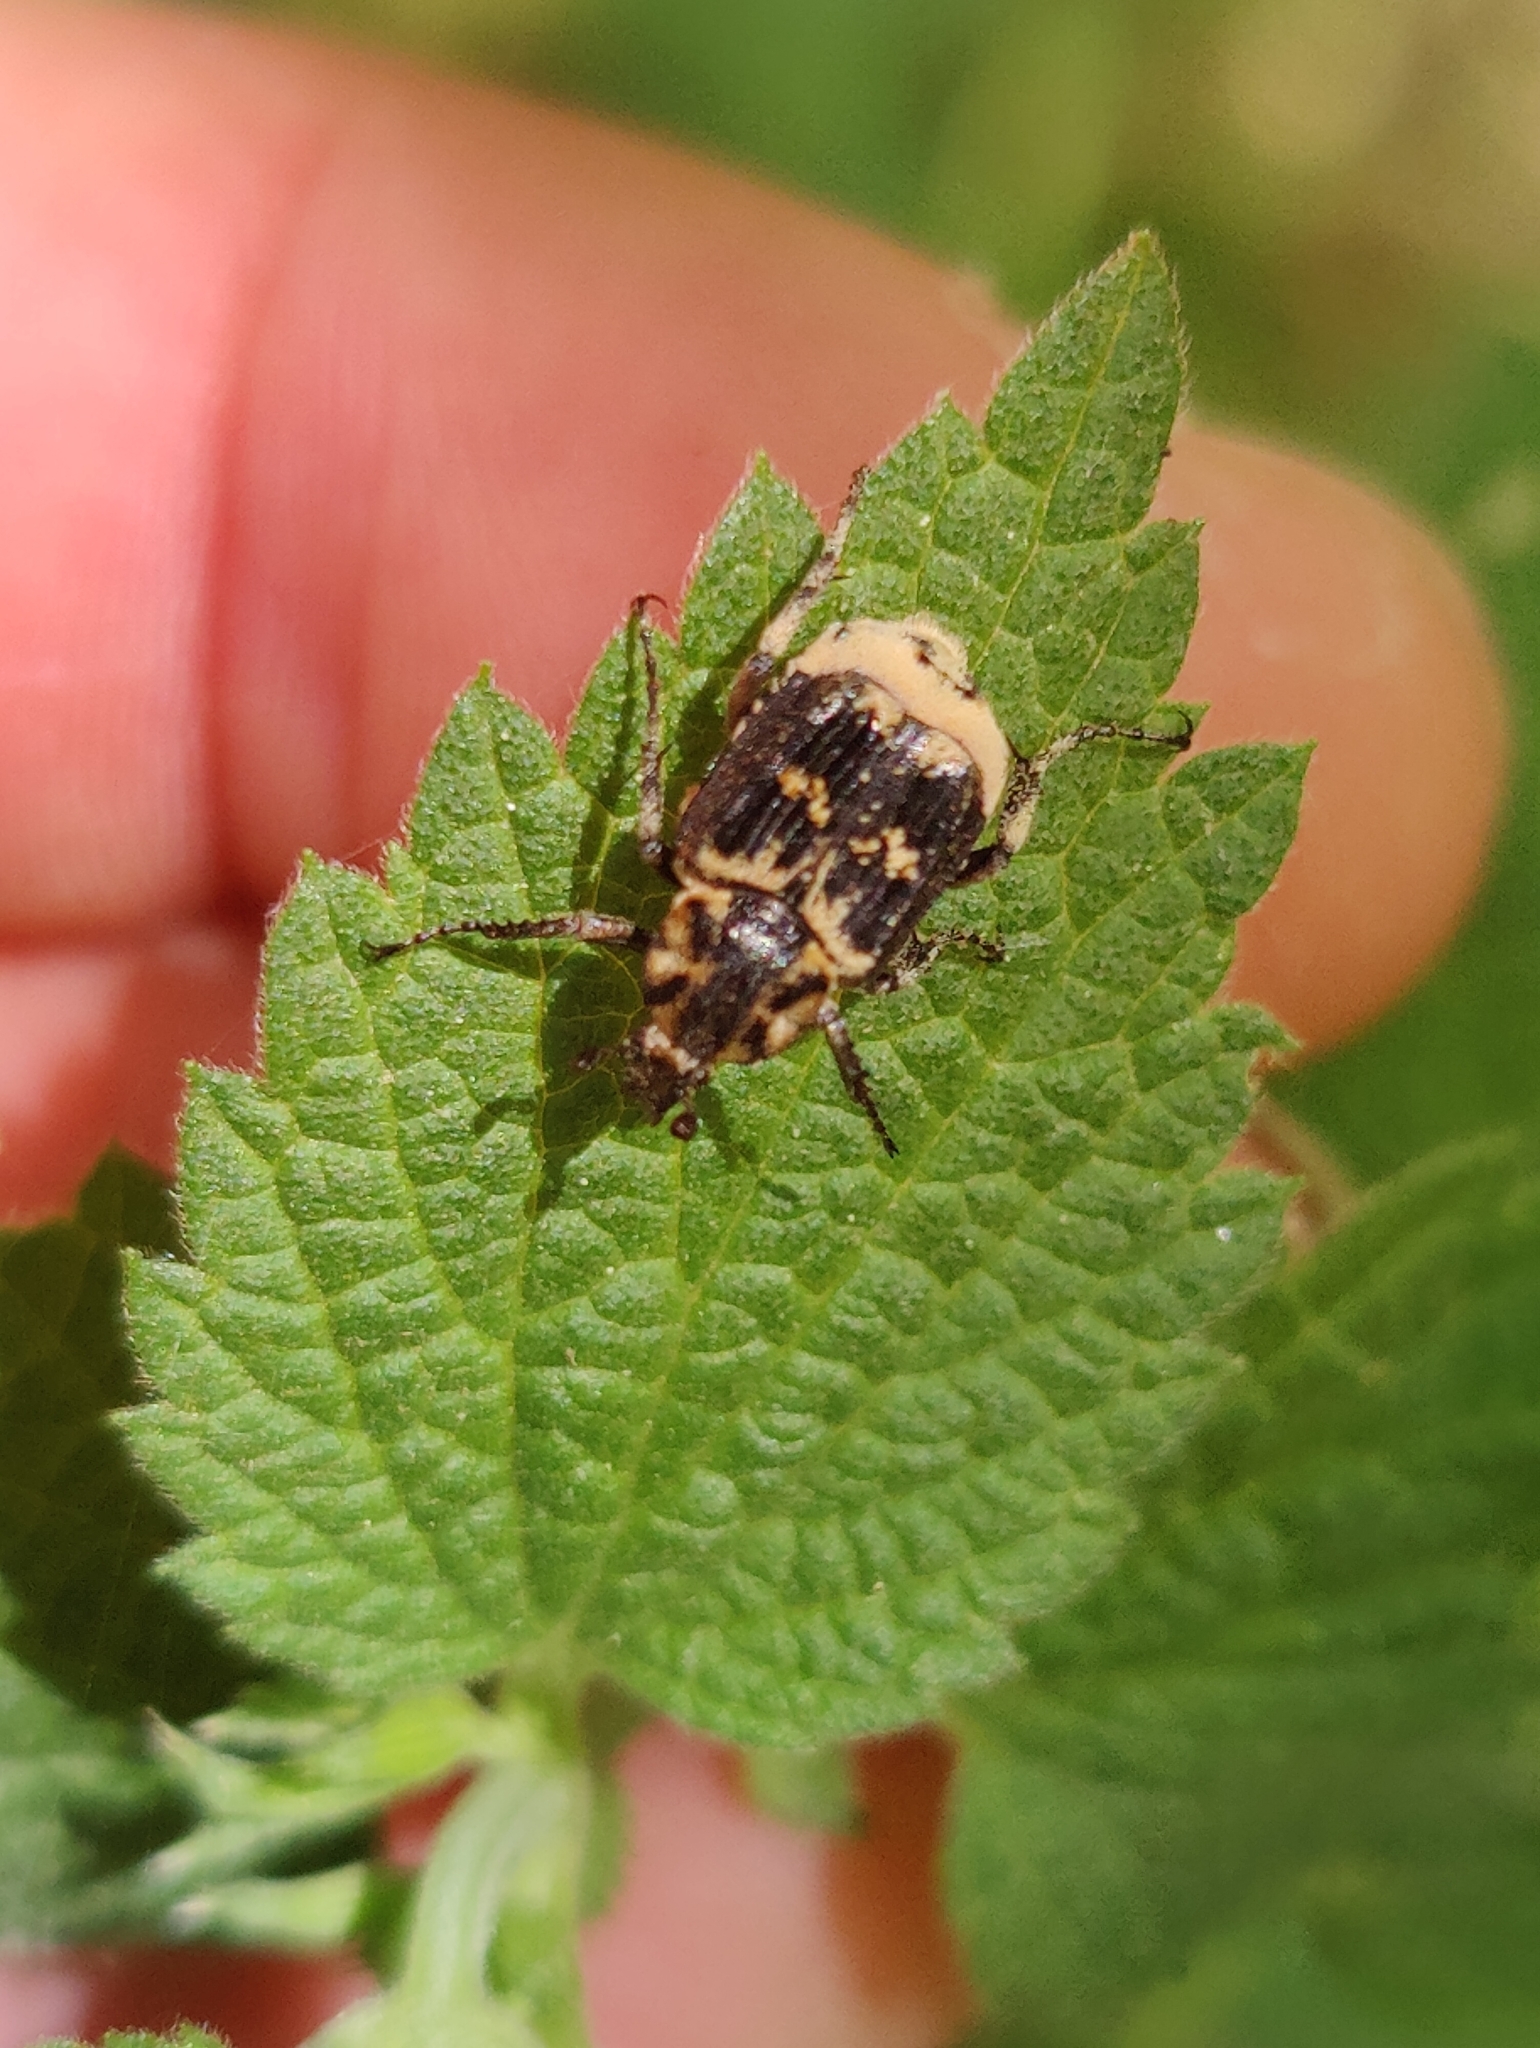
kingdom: Animalia
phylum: Arthropoda
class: Insecta
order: Coleoptera
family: Scarabaeidae
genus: Valgus
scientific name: Valgus hemipterus
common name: Bug flower chafer
